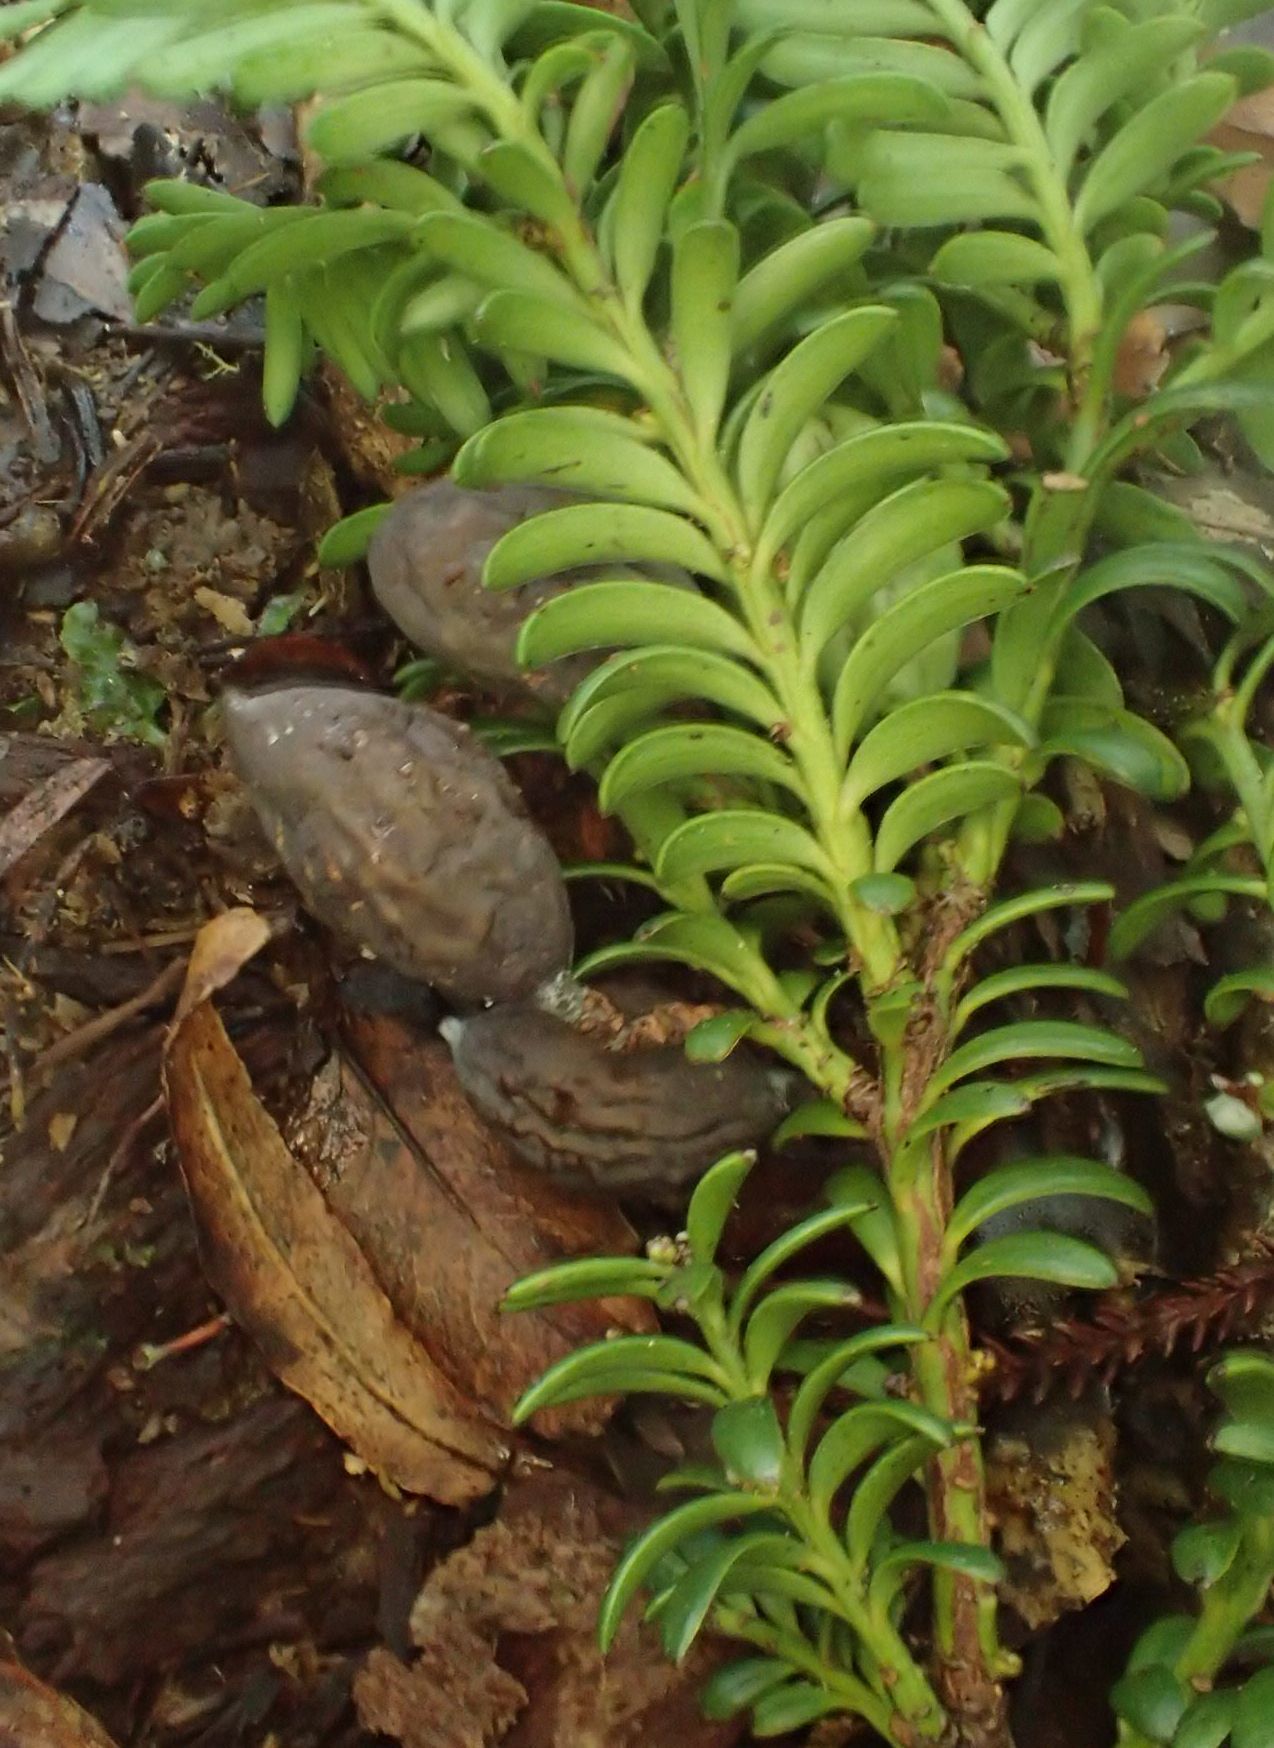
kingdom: Plantae
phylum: Tracheophyta
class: Pinopsida
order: Pinales
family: Podocarpaceae
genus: Prumnopitys
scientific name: Prumnopitys ferruginea
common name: Brown pine
